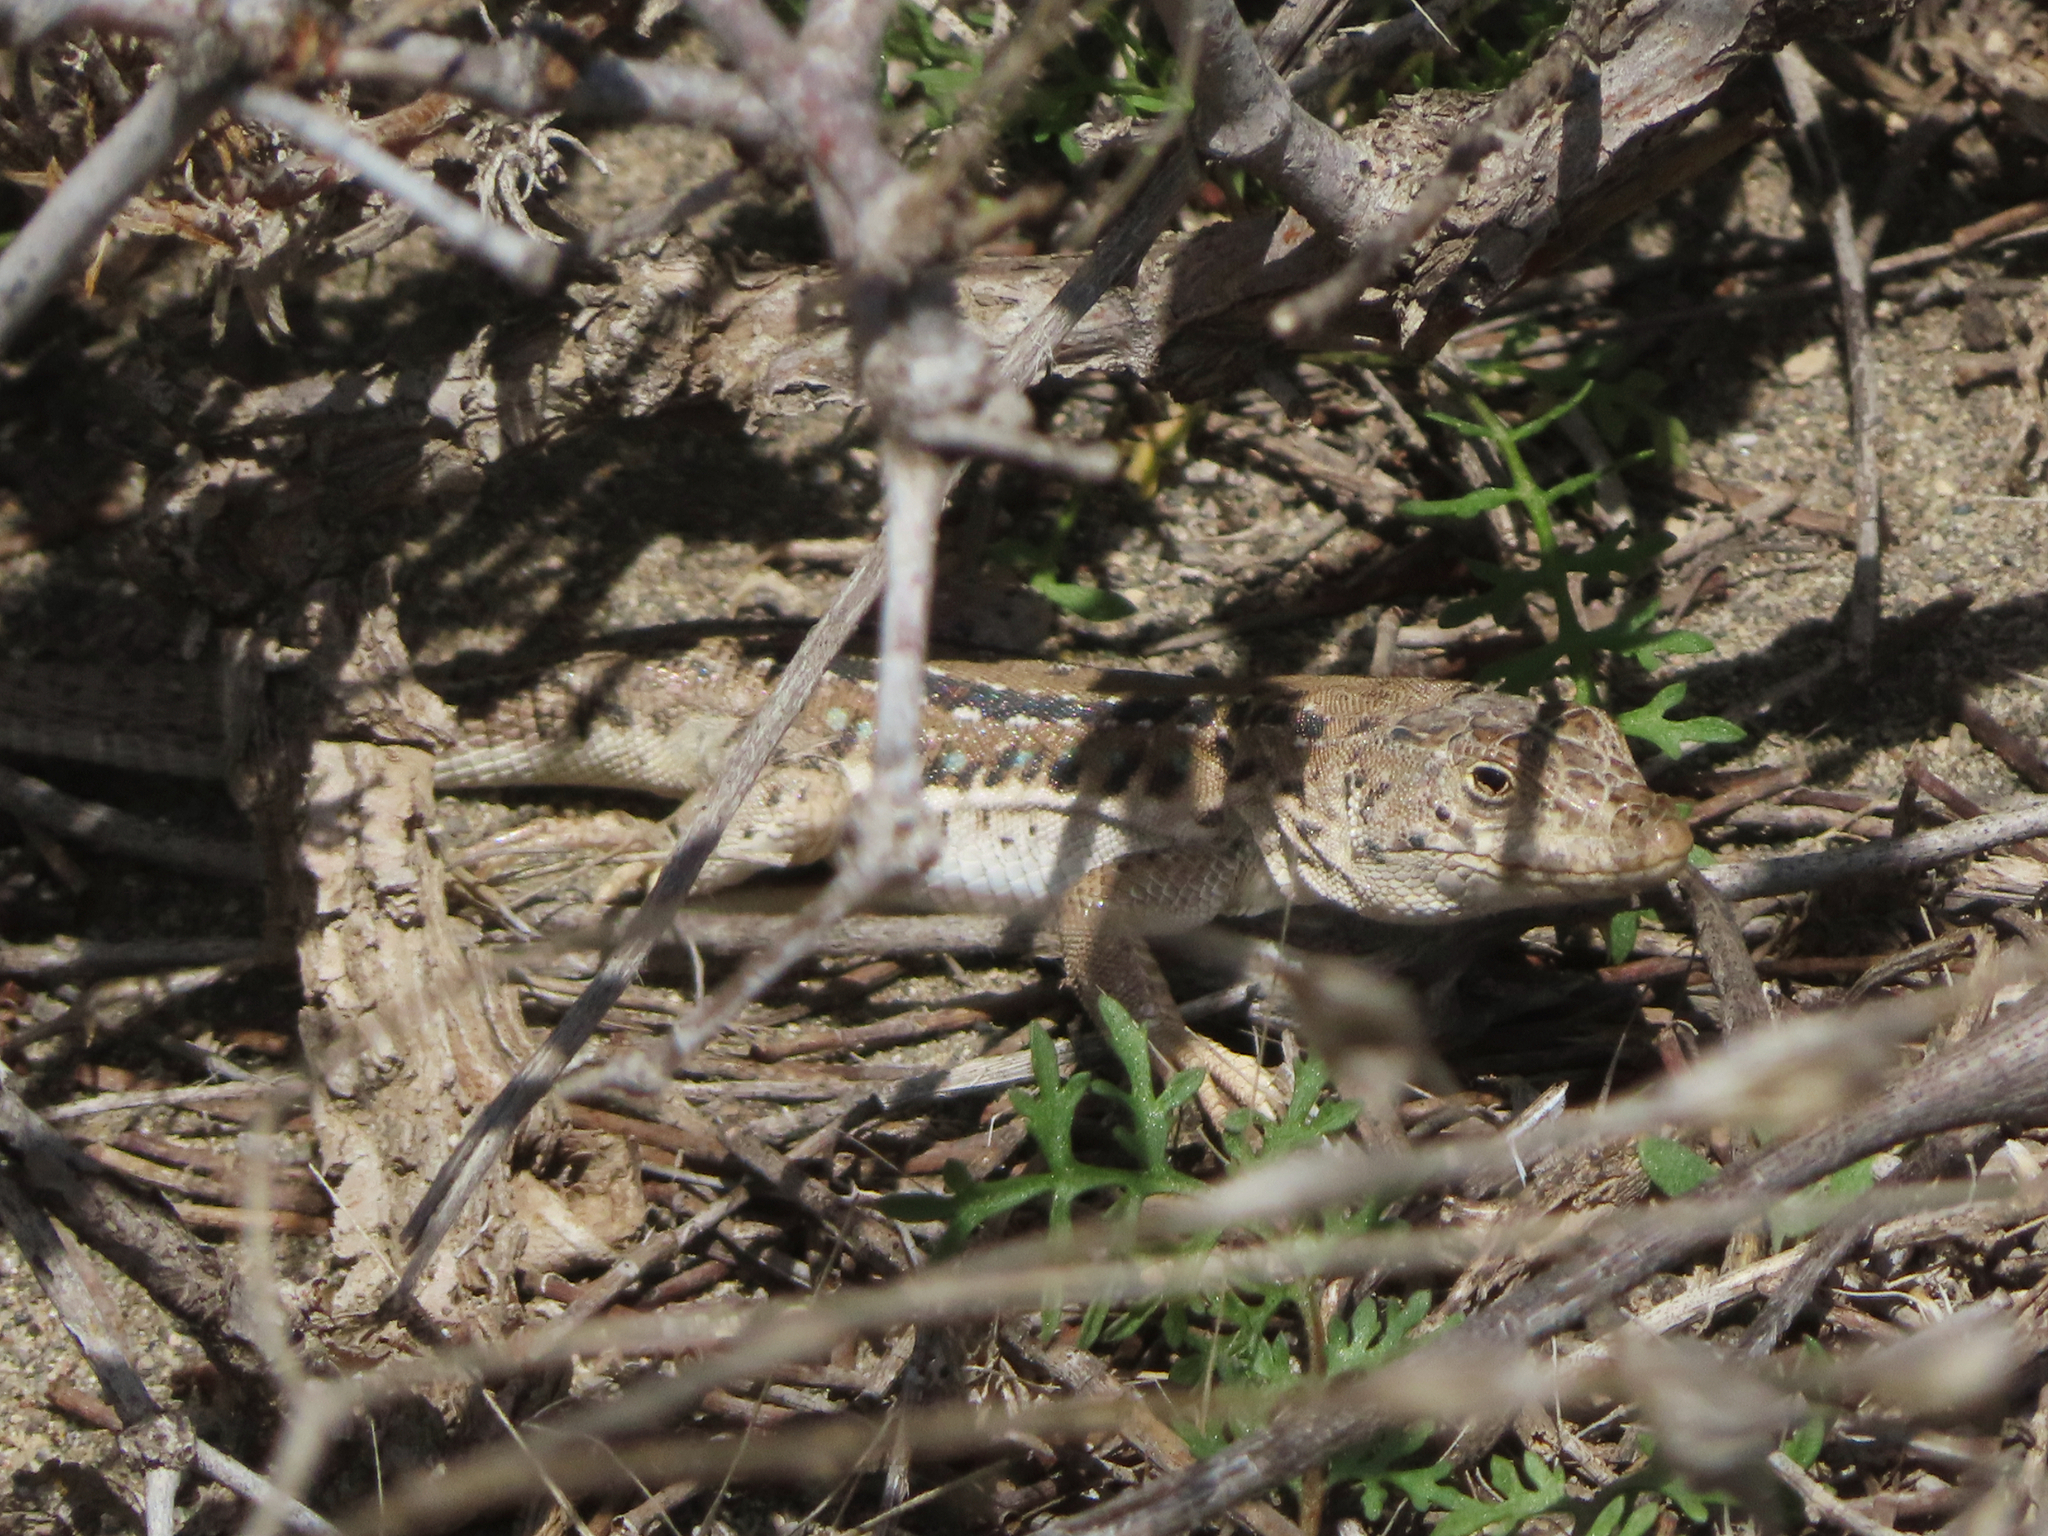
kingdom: Animalia
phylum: Chordata
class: Squamata
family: Lacertidae
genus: Eremias
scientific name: Eremias strauchi
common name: Strauch's racerunner
